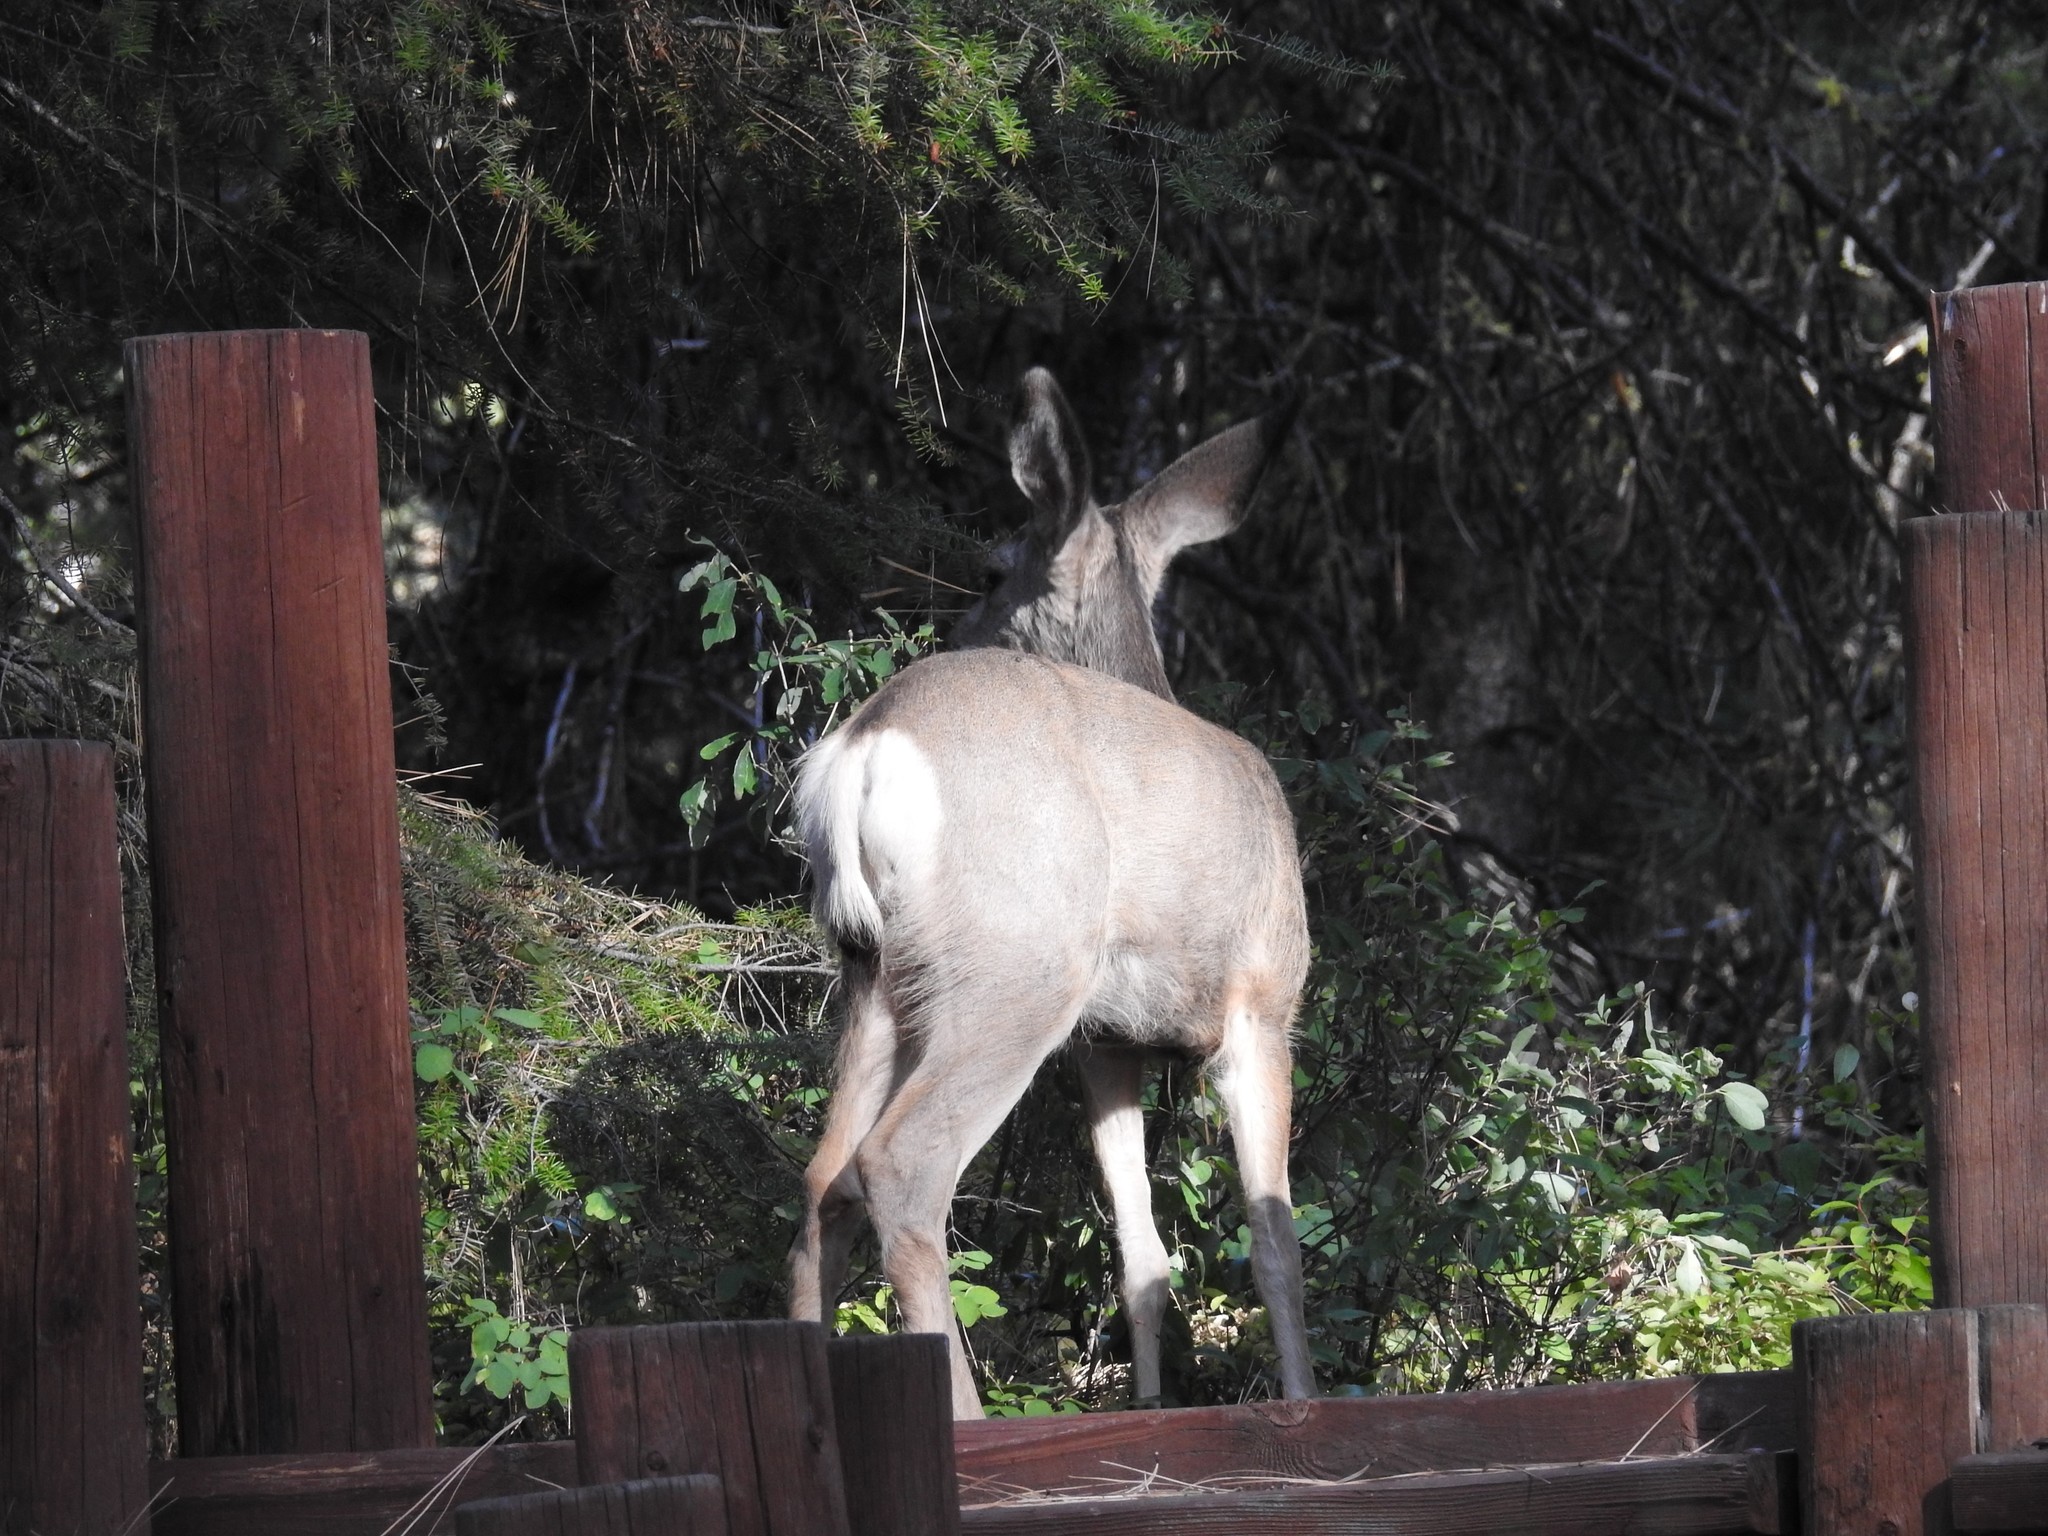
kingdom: Animalia
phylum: Chordata
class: Mammalia
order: Artiodactyla
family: Cervidae
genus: Odocoileus
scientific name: Odocoileus hemionus
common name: Mule deer
